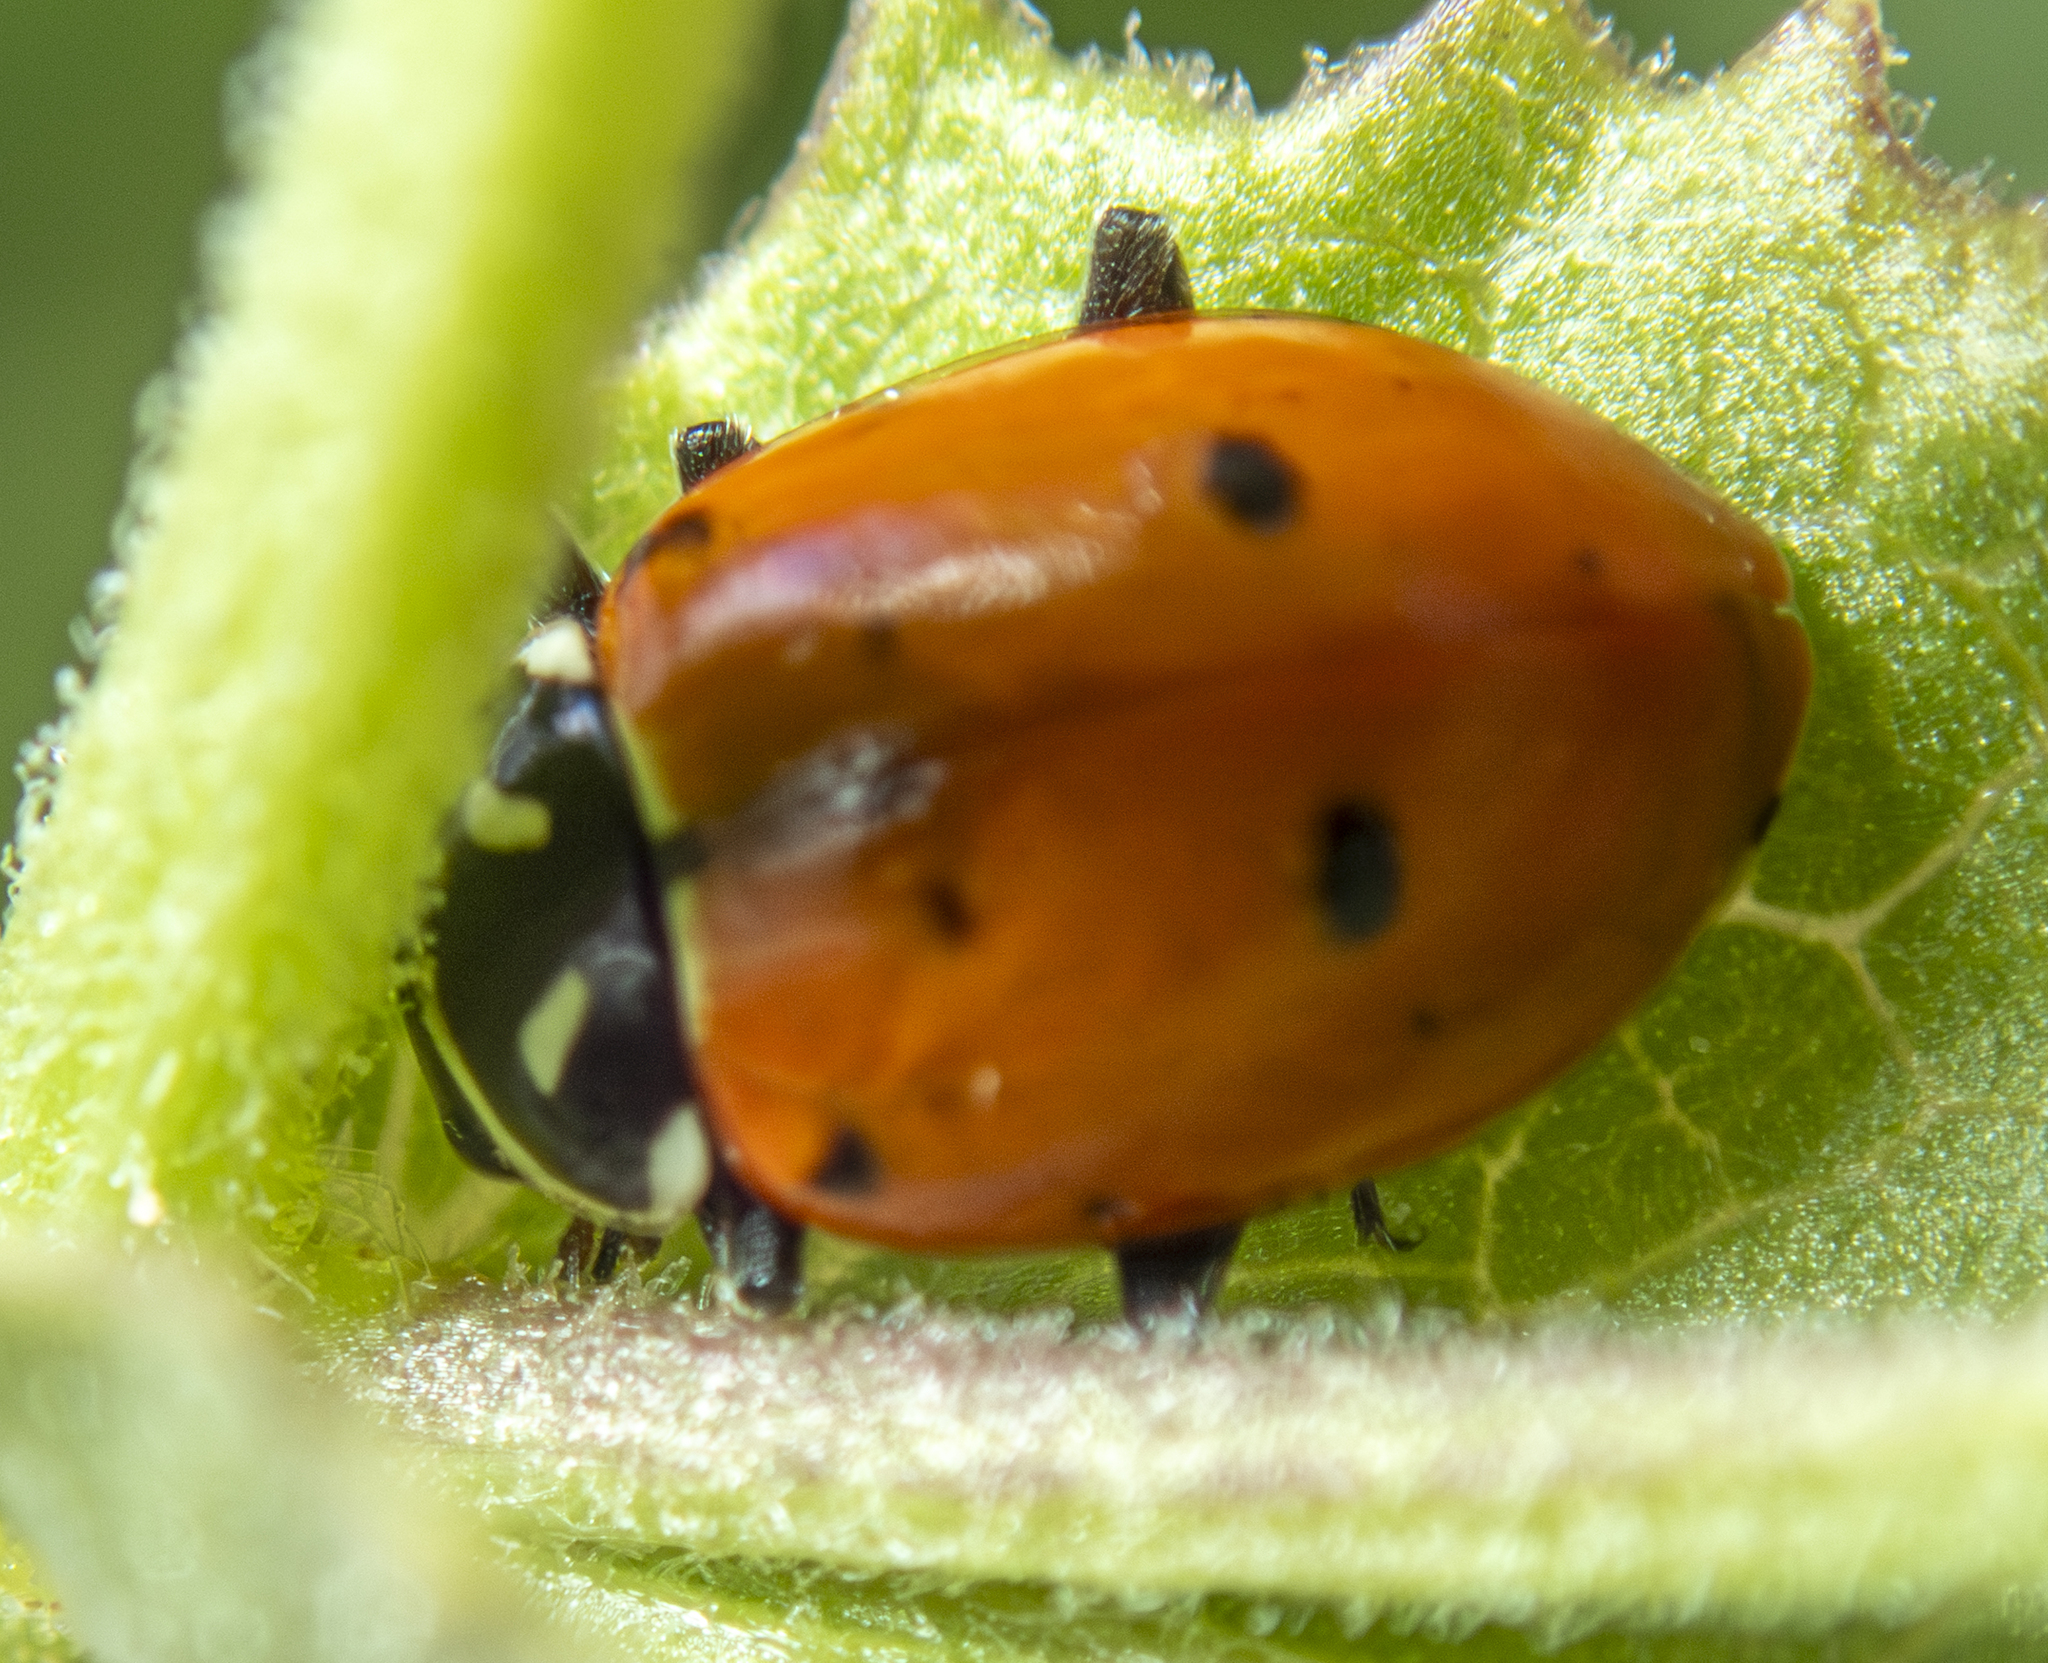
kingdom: Animalia
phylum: Arthropoda
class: Insecta
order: Coleoptera
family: Coccinellidae
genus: Hippodamia
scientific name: Hippodamia convergens
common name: Convergent lady beetle
